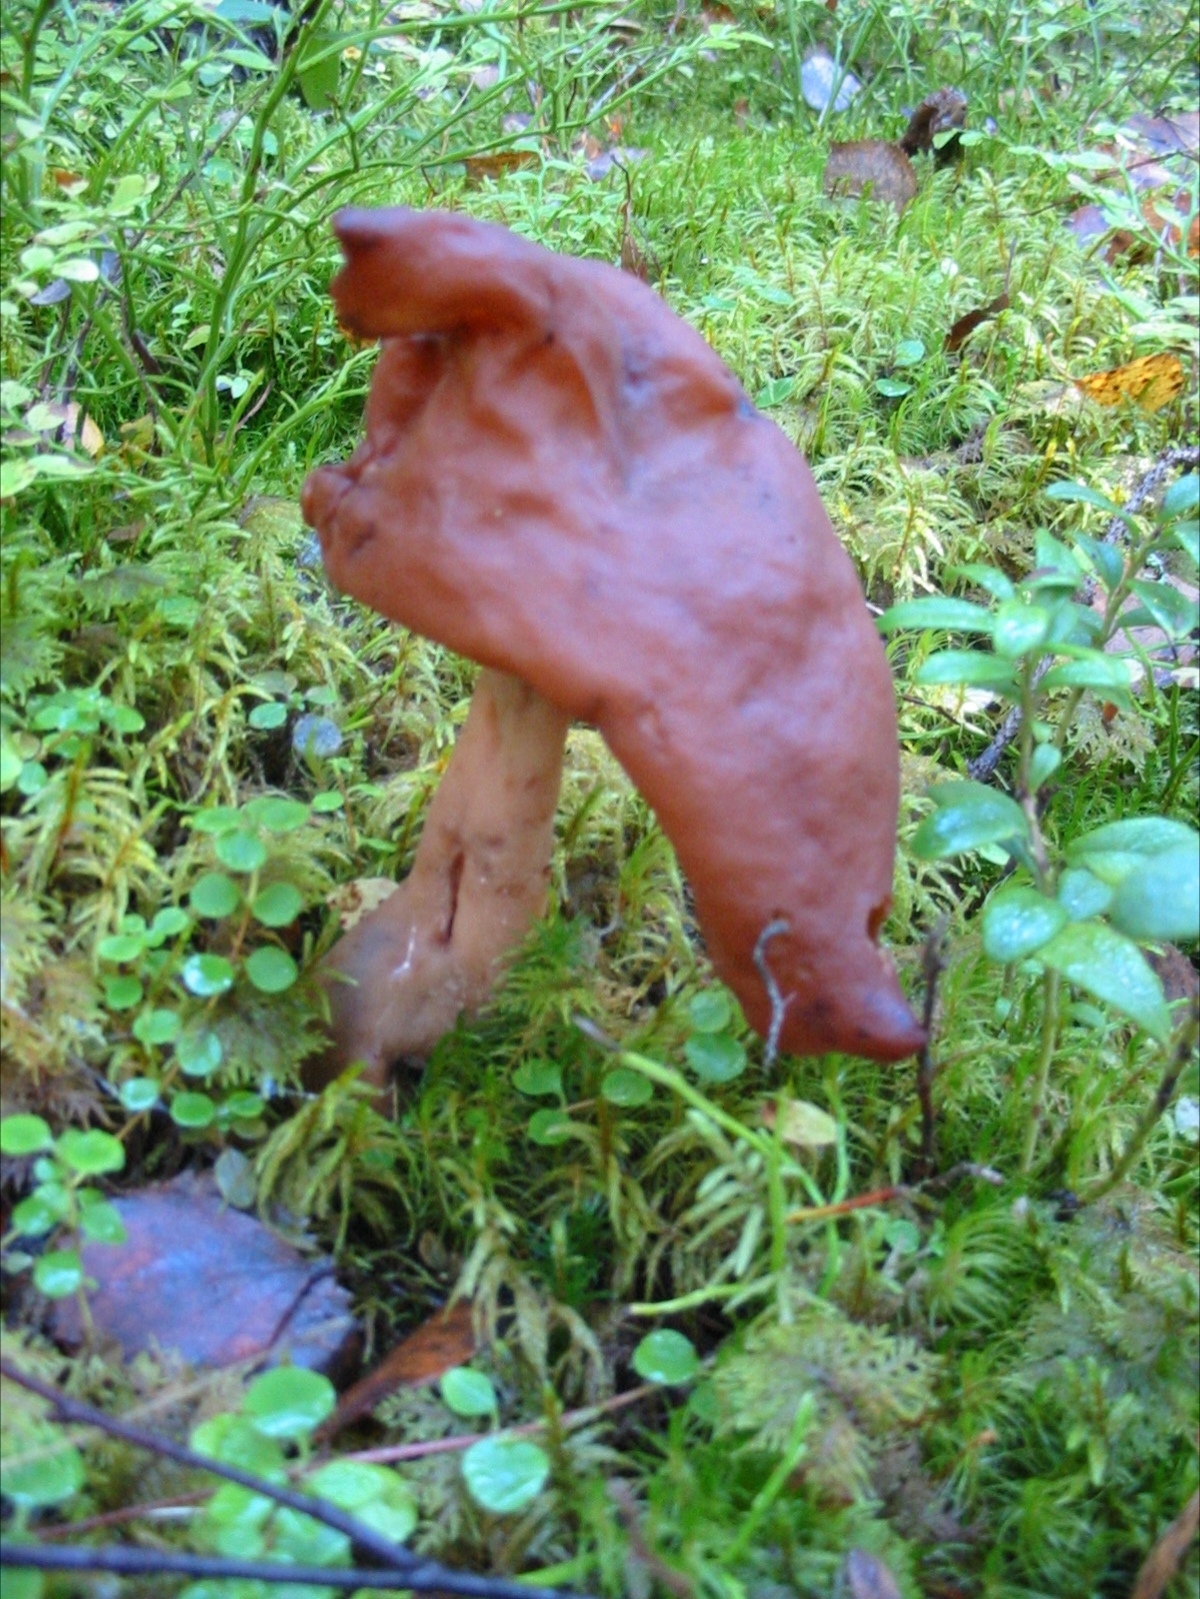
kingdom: Fungi
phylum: Ascomycota
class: Pezizomycetes
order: Pezizales
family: Discinaceae
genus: Gyromitra
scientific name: Gyromitra infula
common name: Pouched false morel
